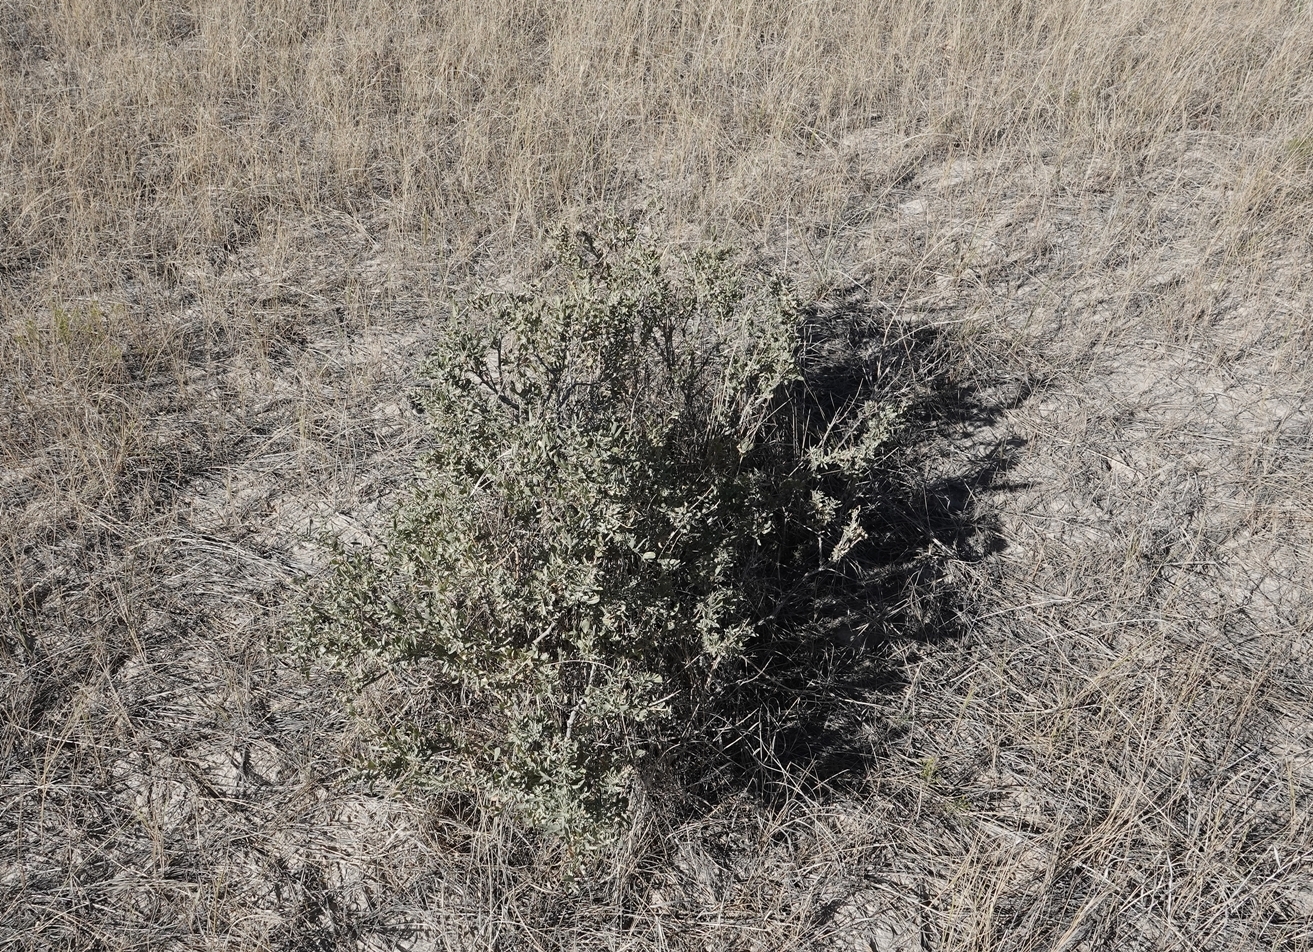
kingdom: Plantae
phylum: Tracheophyta
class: Magnoliopsida
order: Caryophyllales
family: Amaranthaceae
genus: Atriplex
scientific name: Atriplex gardneri
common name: Gardner's orache
